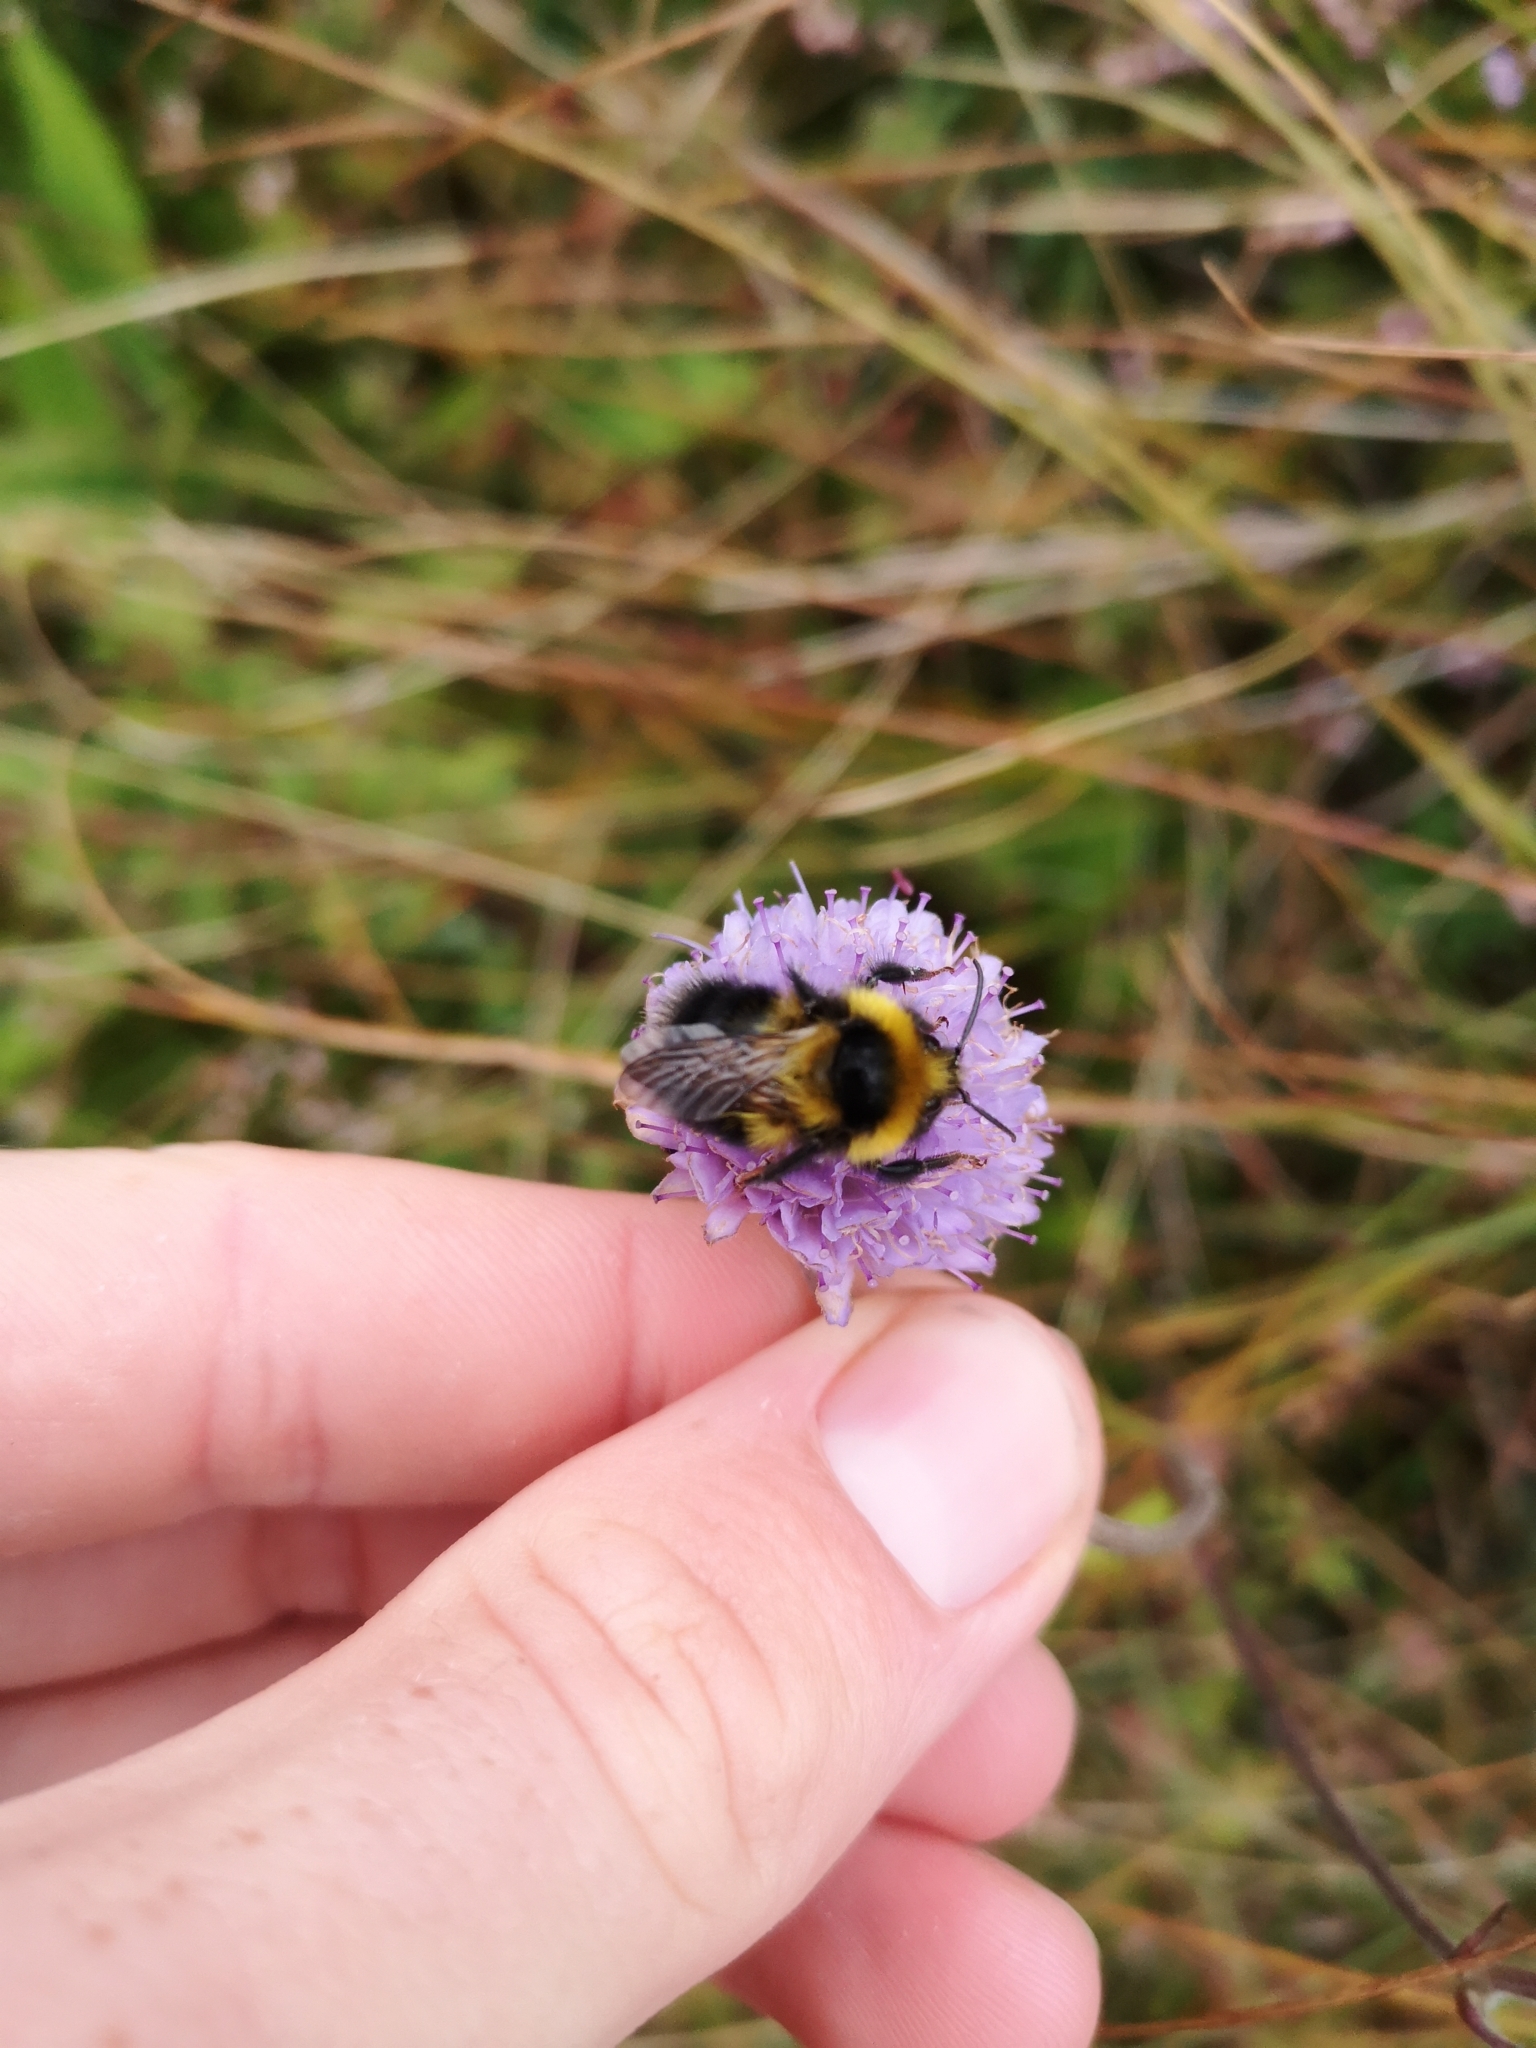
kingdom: Animalia
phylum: Arthropoda
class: Insecta
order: Hymenoptera
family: Apidae
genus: Bombus
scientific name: Bombus jonellus
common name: Heath humble-bee
